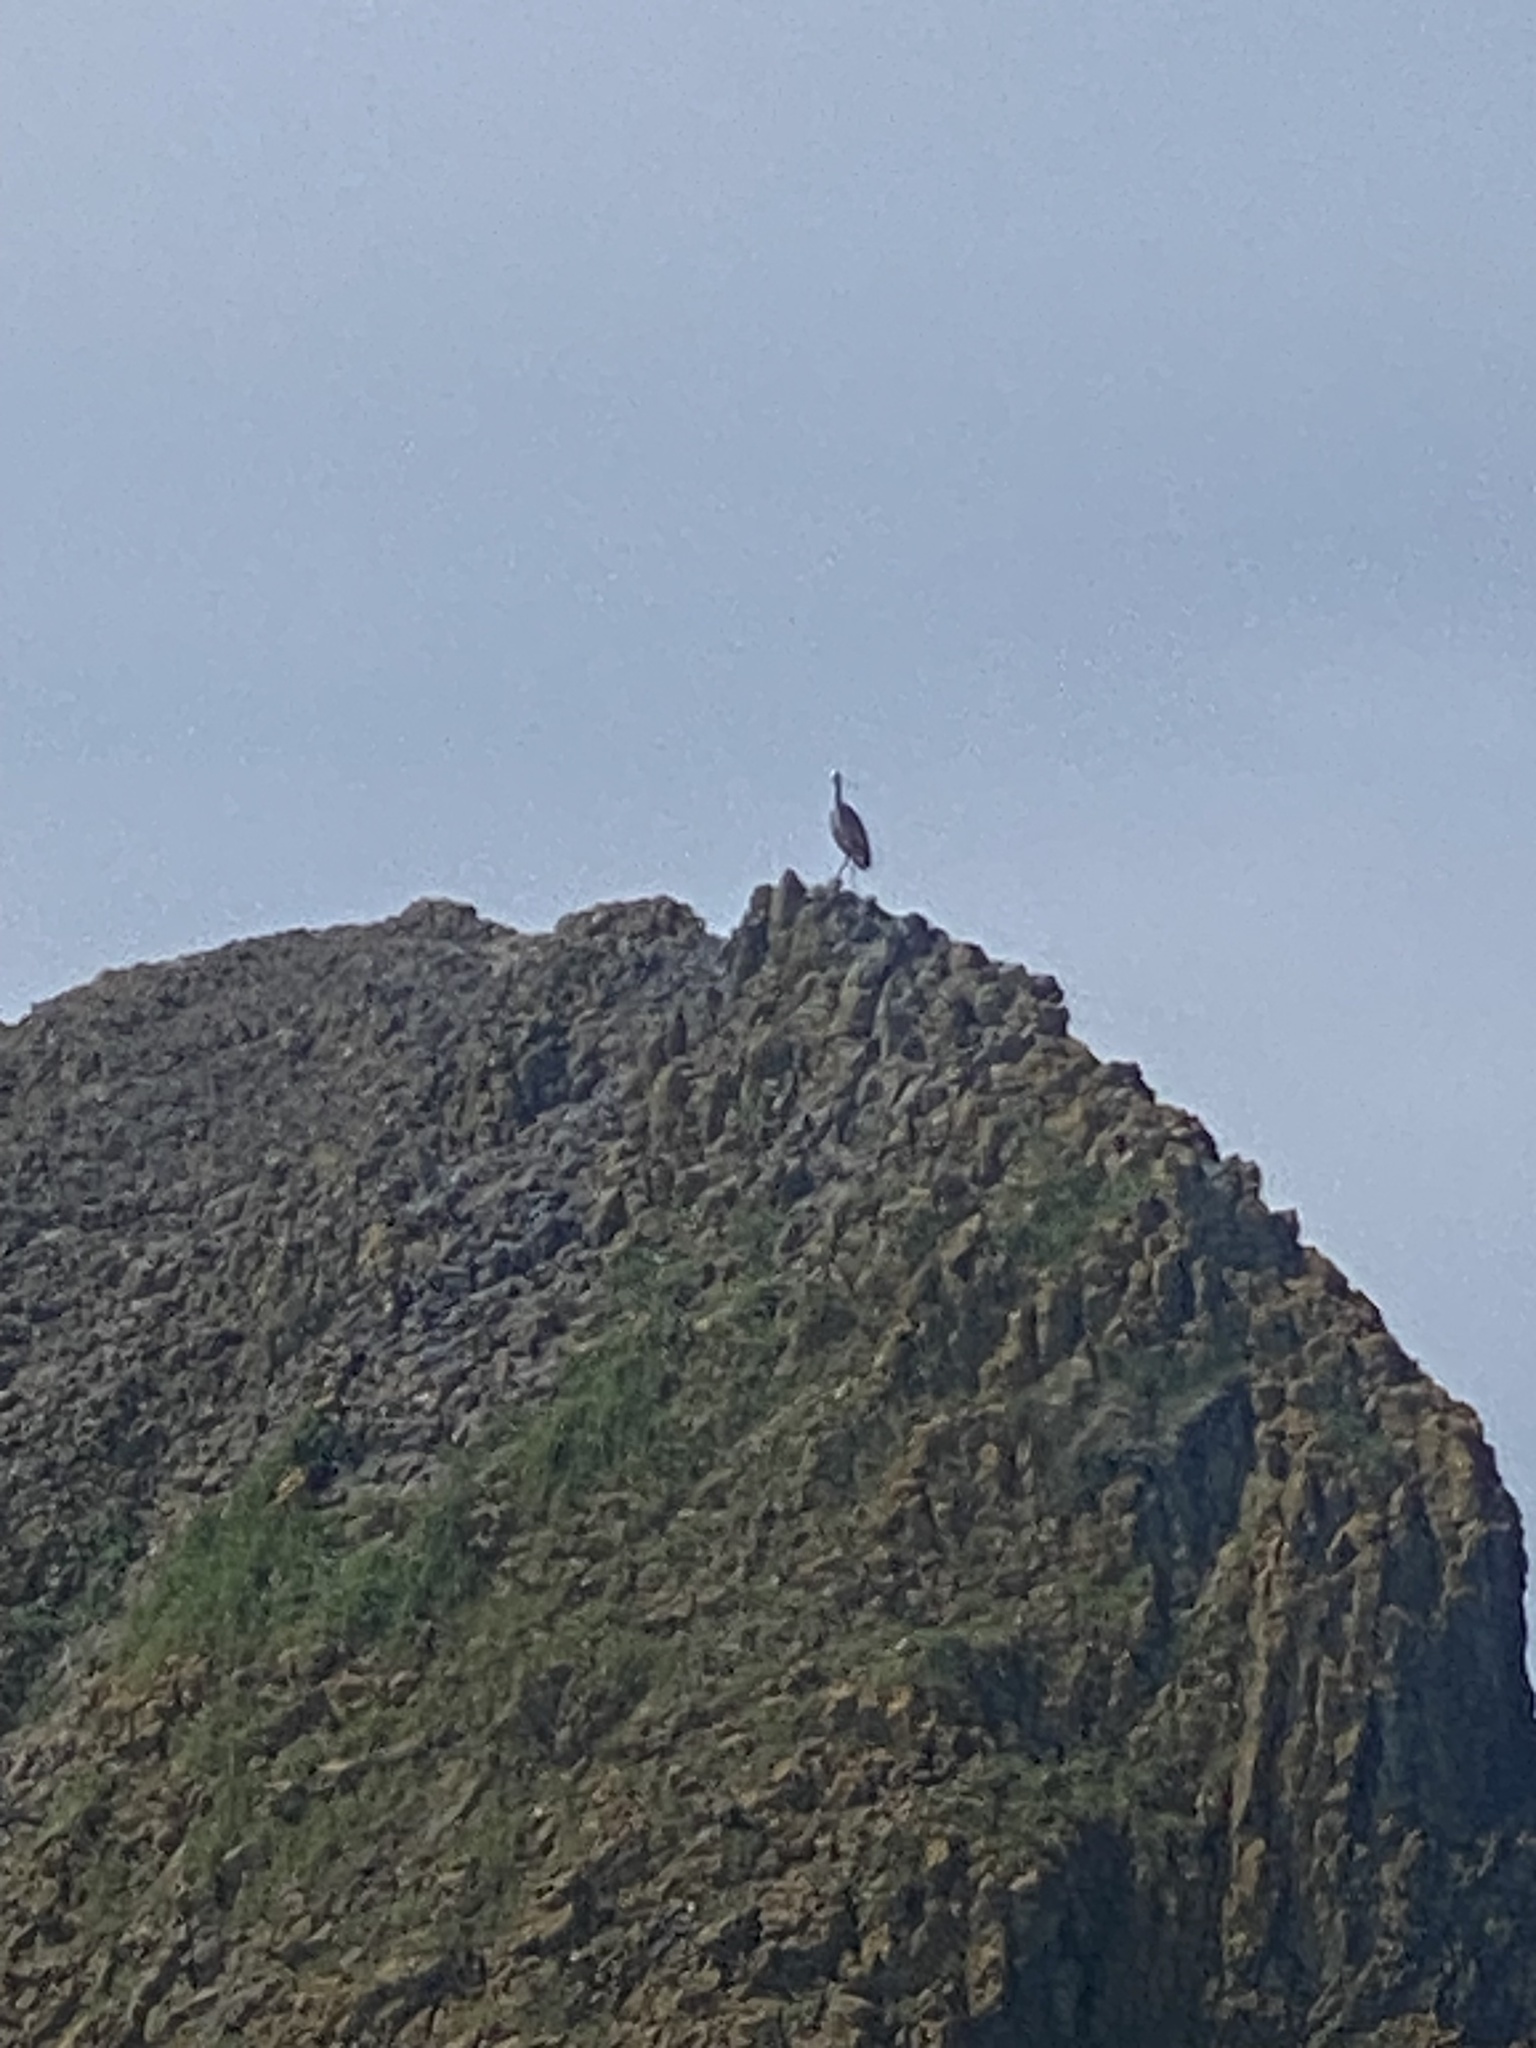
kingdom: Animalia
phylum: Chordata
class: Aves
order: Pelecaniformes
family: Ardeidae
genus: Ardea
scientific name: Ardea herodias
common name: Great blue heron
